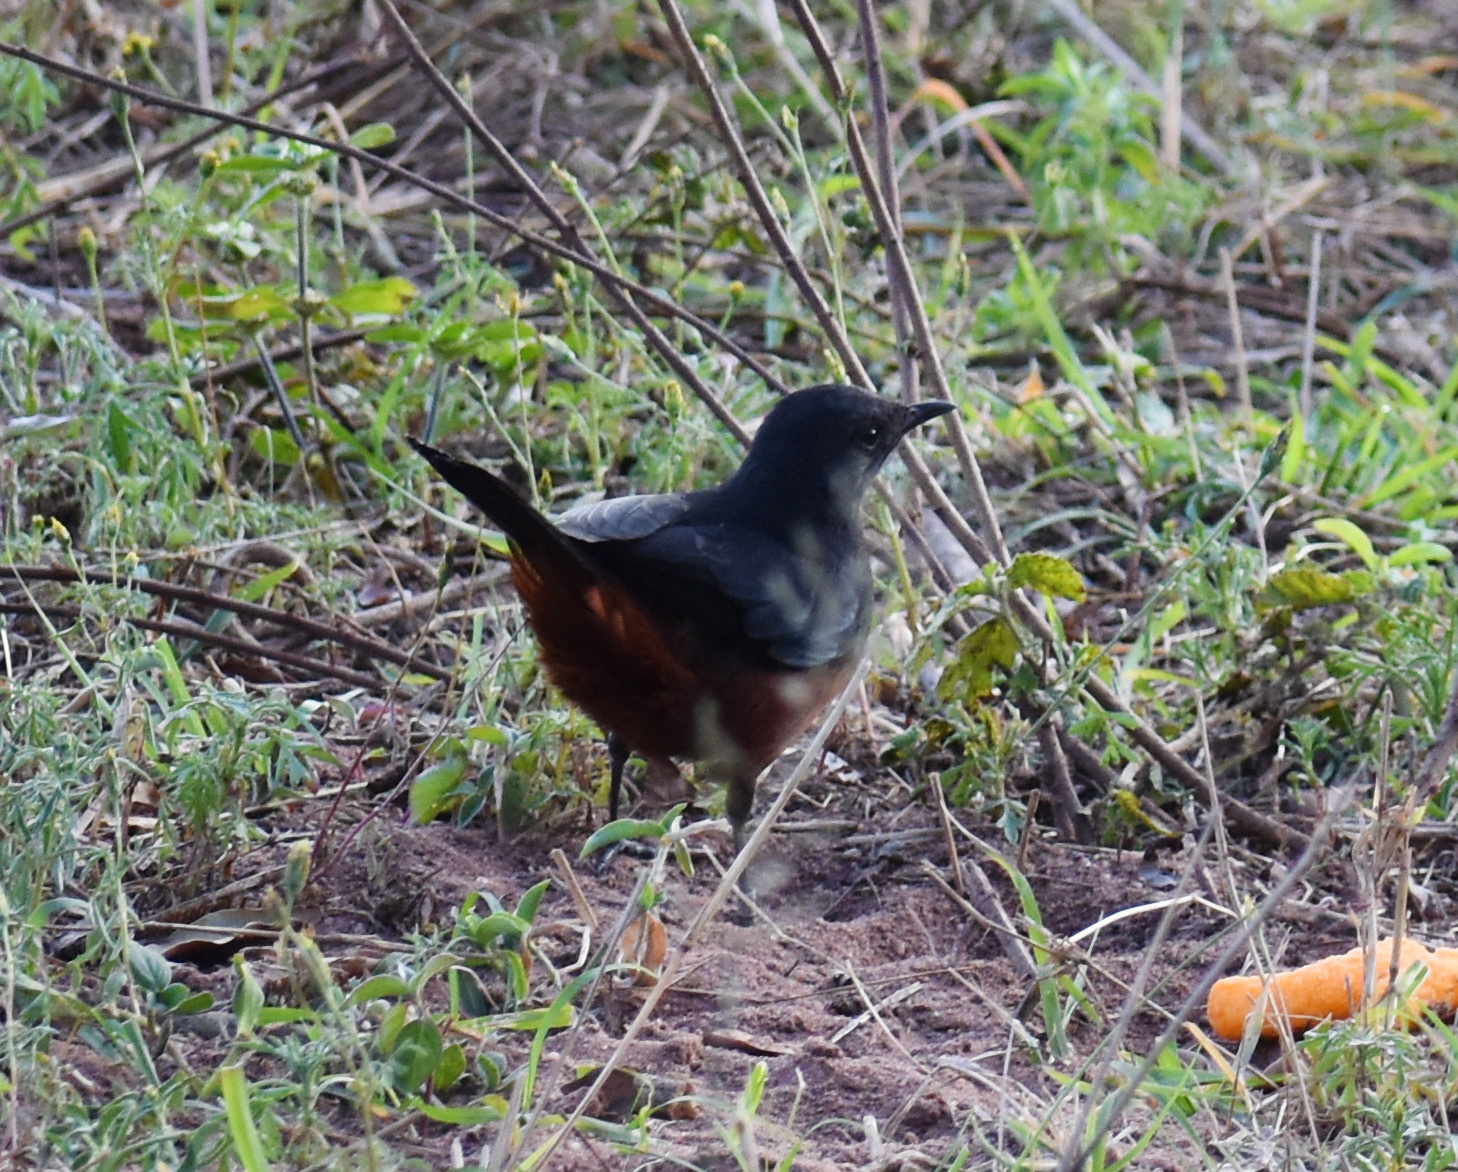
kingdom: Animalia
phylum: Chordata
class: Aves
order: Passeriformes
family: Muscicapidae
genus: Thamnolaea
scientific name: Thamnolaea cinnamomeiventris
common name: Mocking cliff chat
